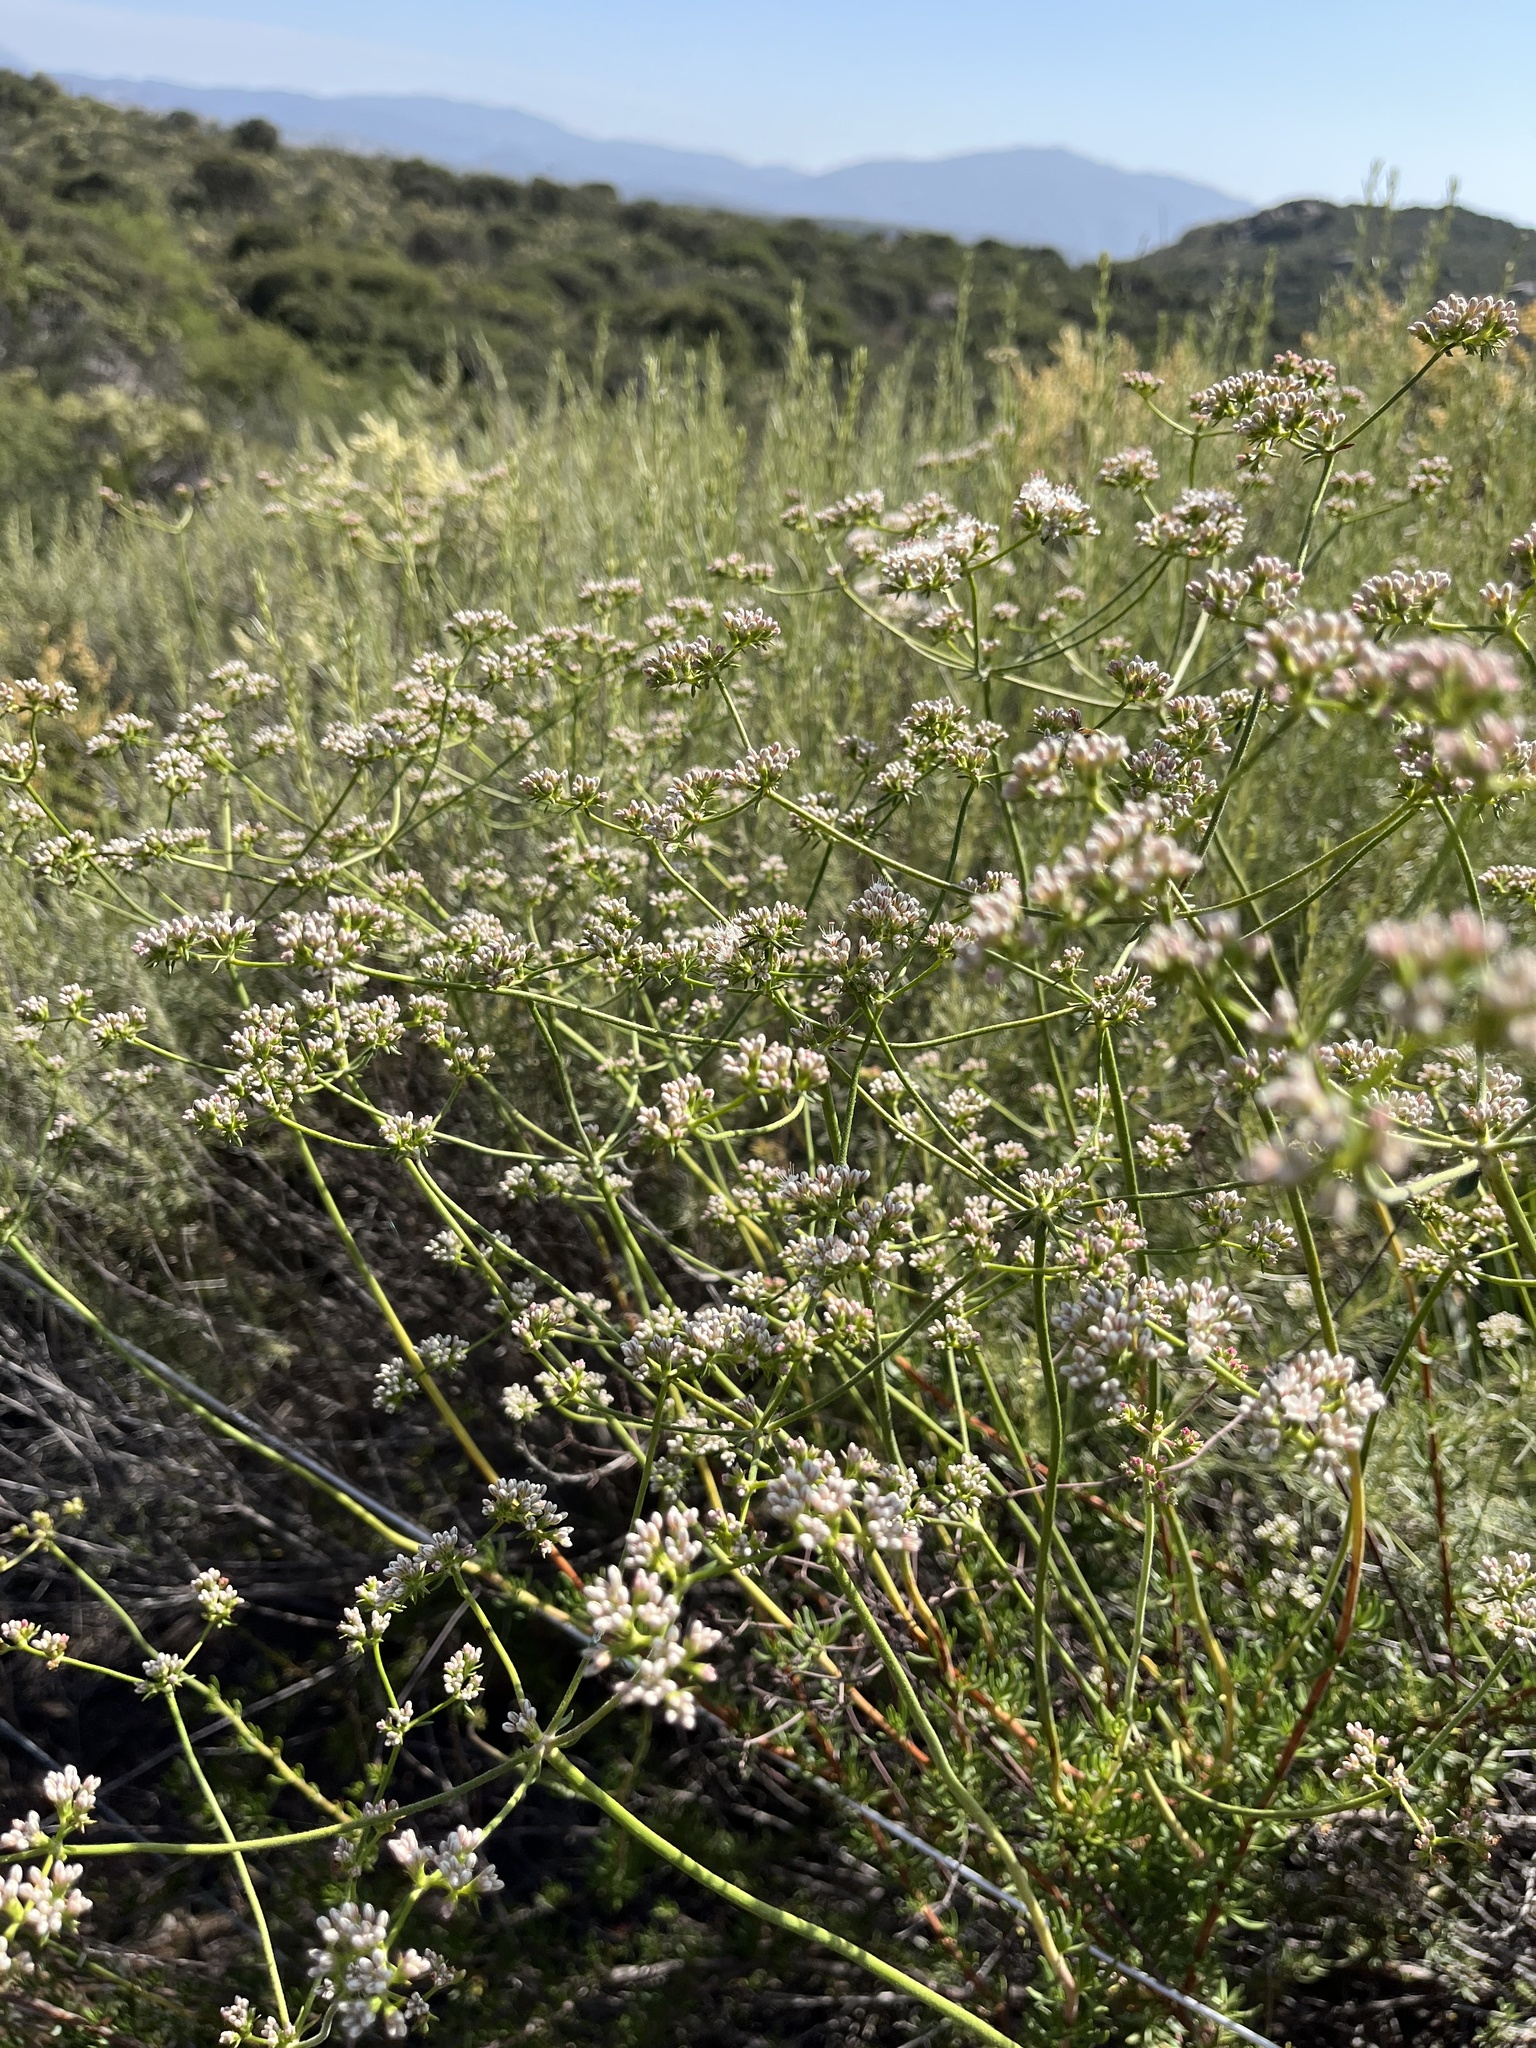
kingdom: Plantae
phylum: Tracheophyta
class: Magnoliopsida
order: Caryophyllales
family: Polygonaceae
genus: Eriogonum
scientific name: Eriogonum fasciculatum
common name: California wild buckwheat
